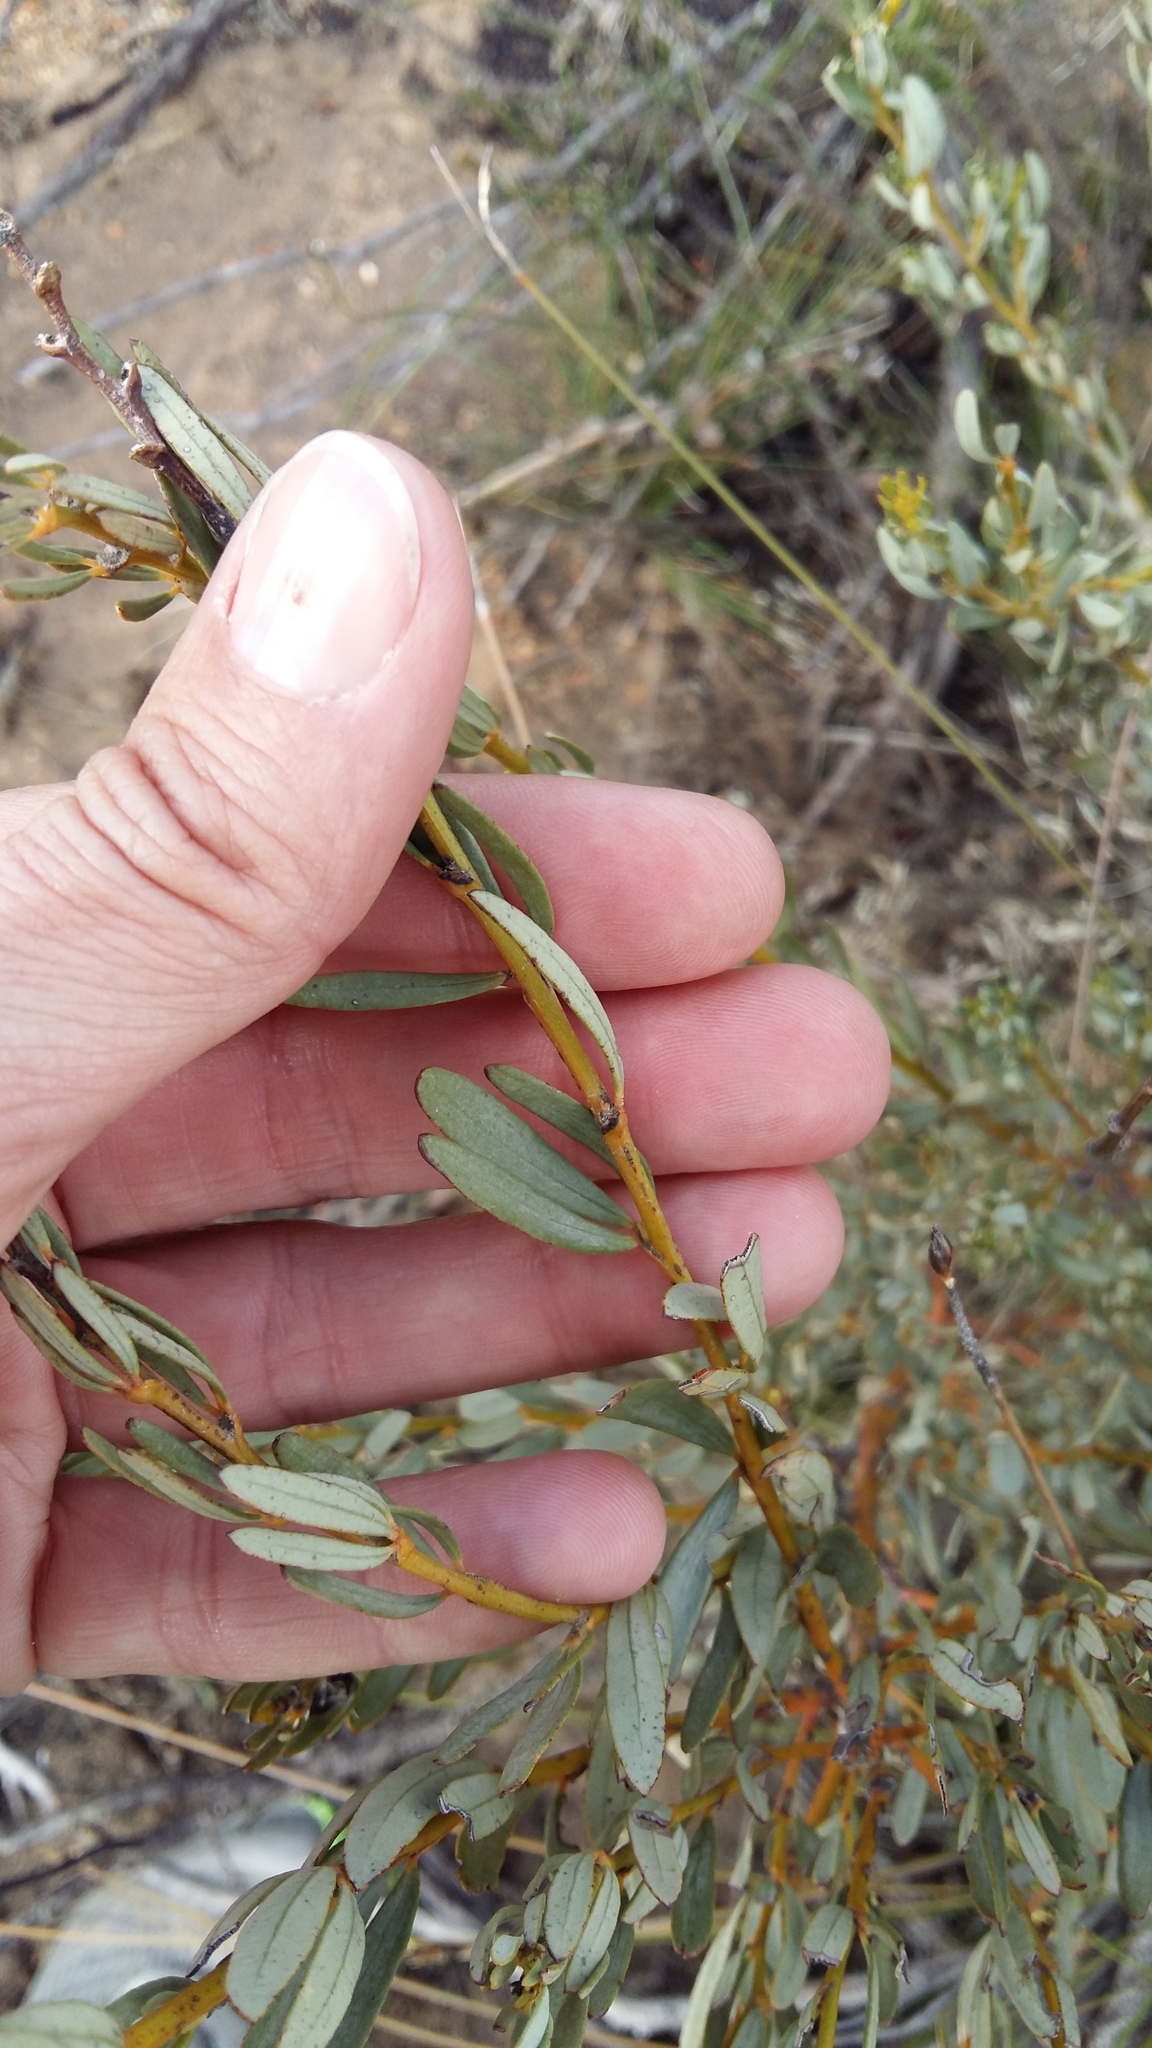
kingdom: Plantae
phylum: Tracheophyta
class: Magnoliopsida
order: Fabales
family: Fabaceae
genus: Cyclopia
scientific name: Cyclopia intermedia
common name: Mountain tea
